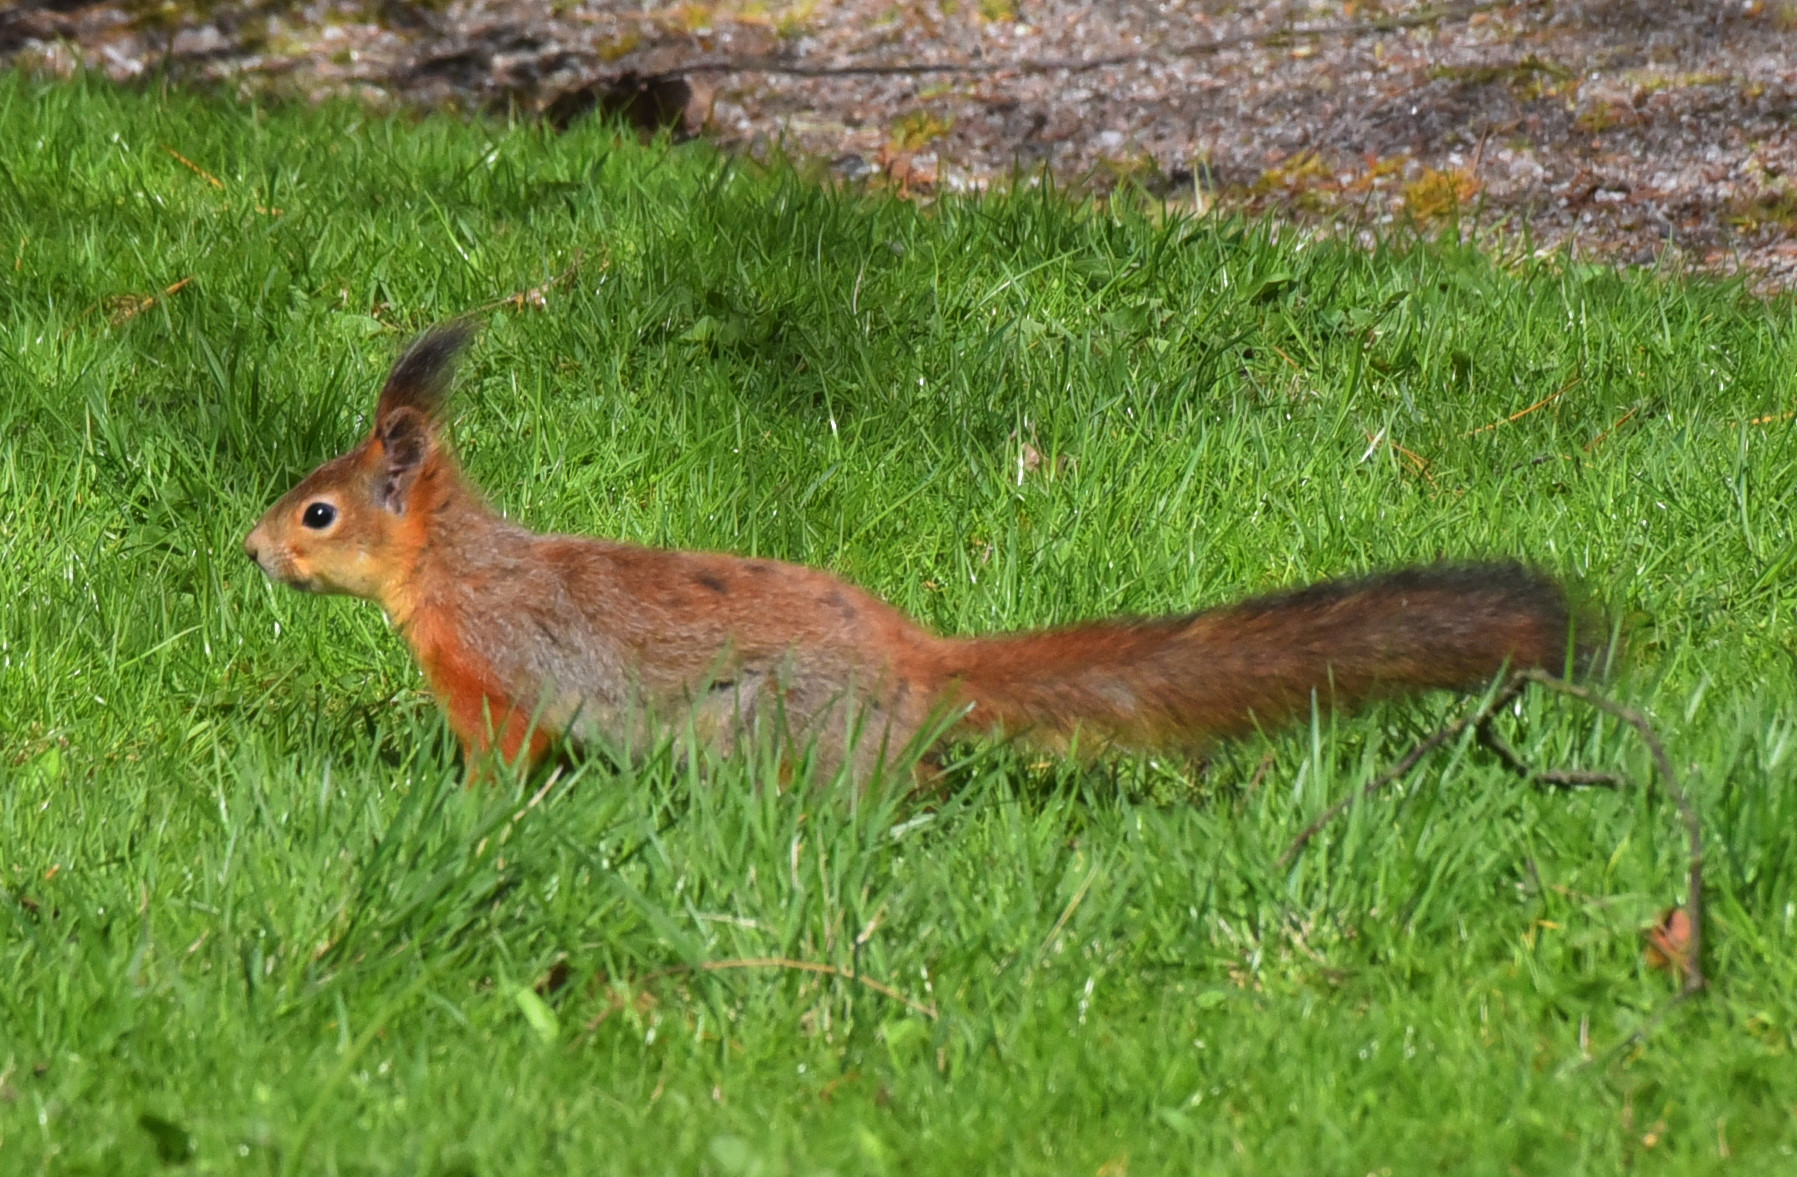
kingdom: Animalia
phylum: Chordata
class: Mammalia
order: Rodentia
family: Sciuridae
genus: Sciurus
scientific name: Sciurus vulgaris
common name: Eurasian red squirrel
